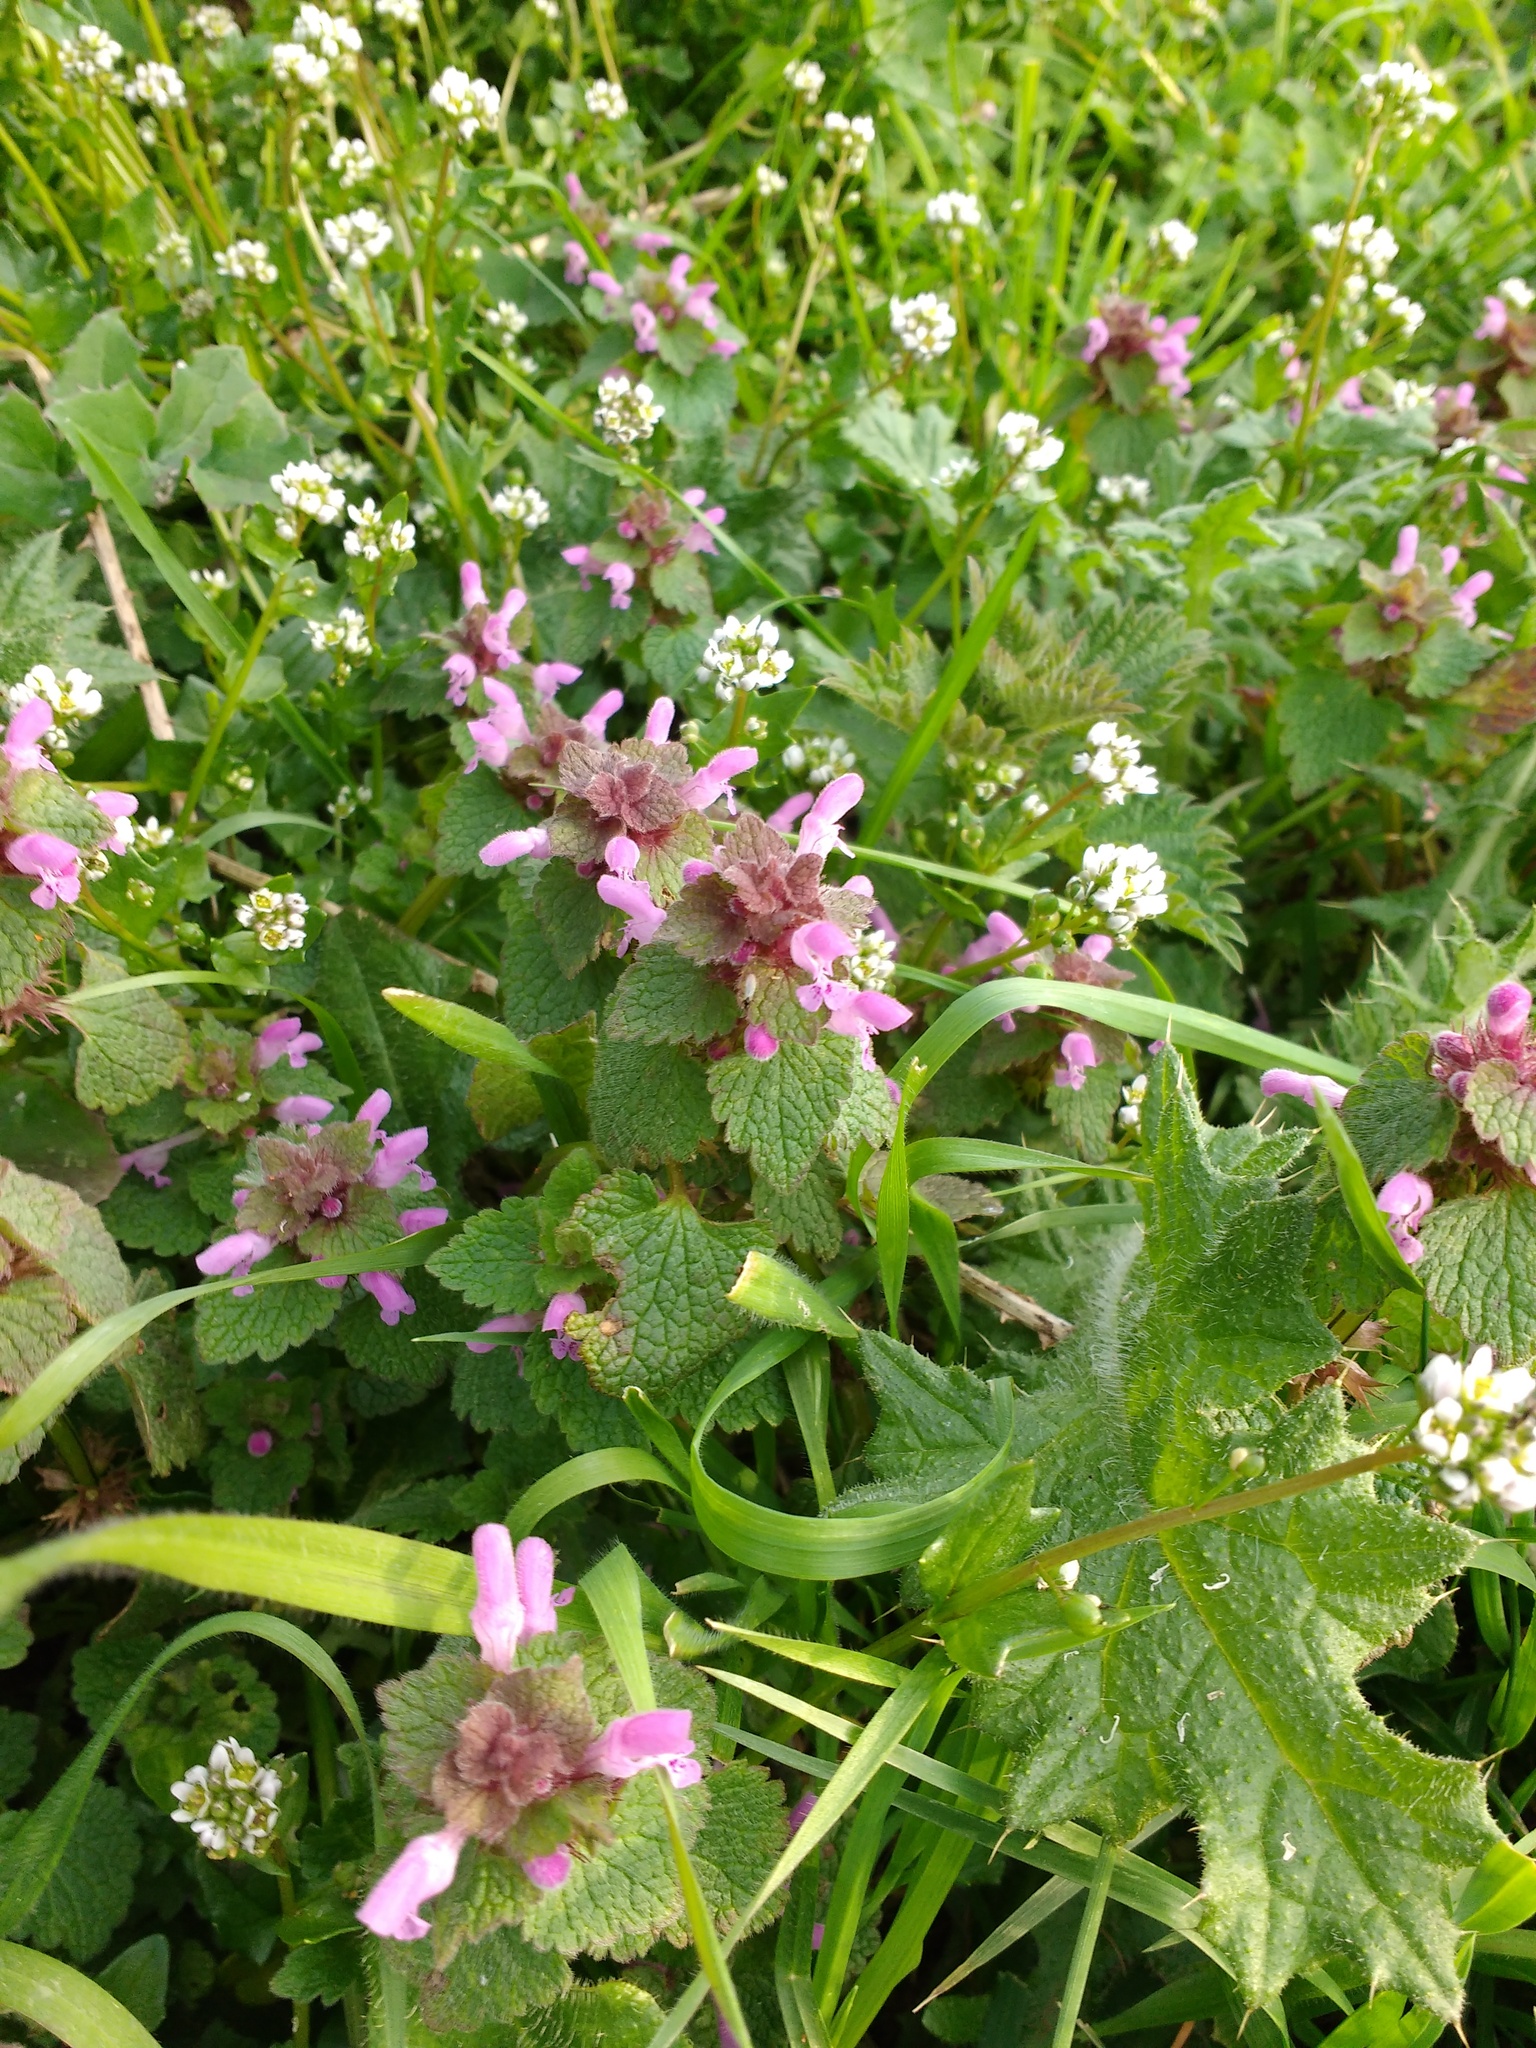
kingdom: Plantae
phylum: Tracheophyta
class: Magnoliopsida
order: Lamiales
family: Lamiaceae
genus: Lamium
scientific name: Lamium purpureum
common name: Red dead-nettle
